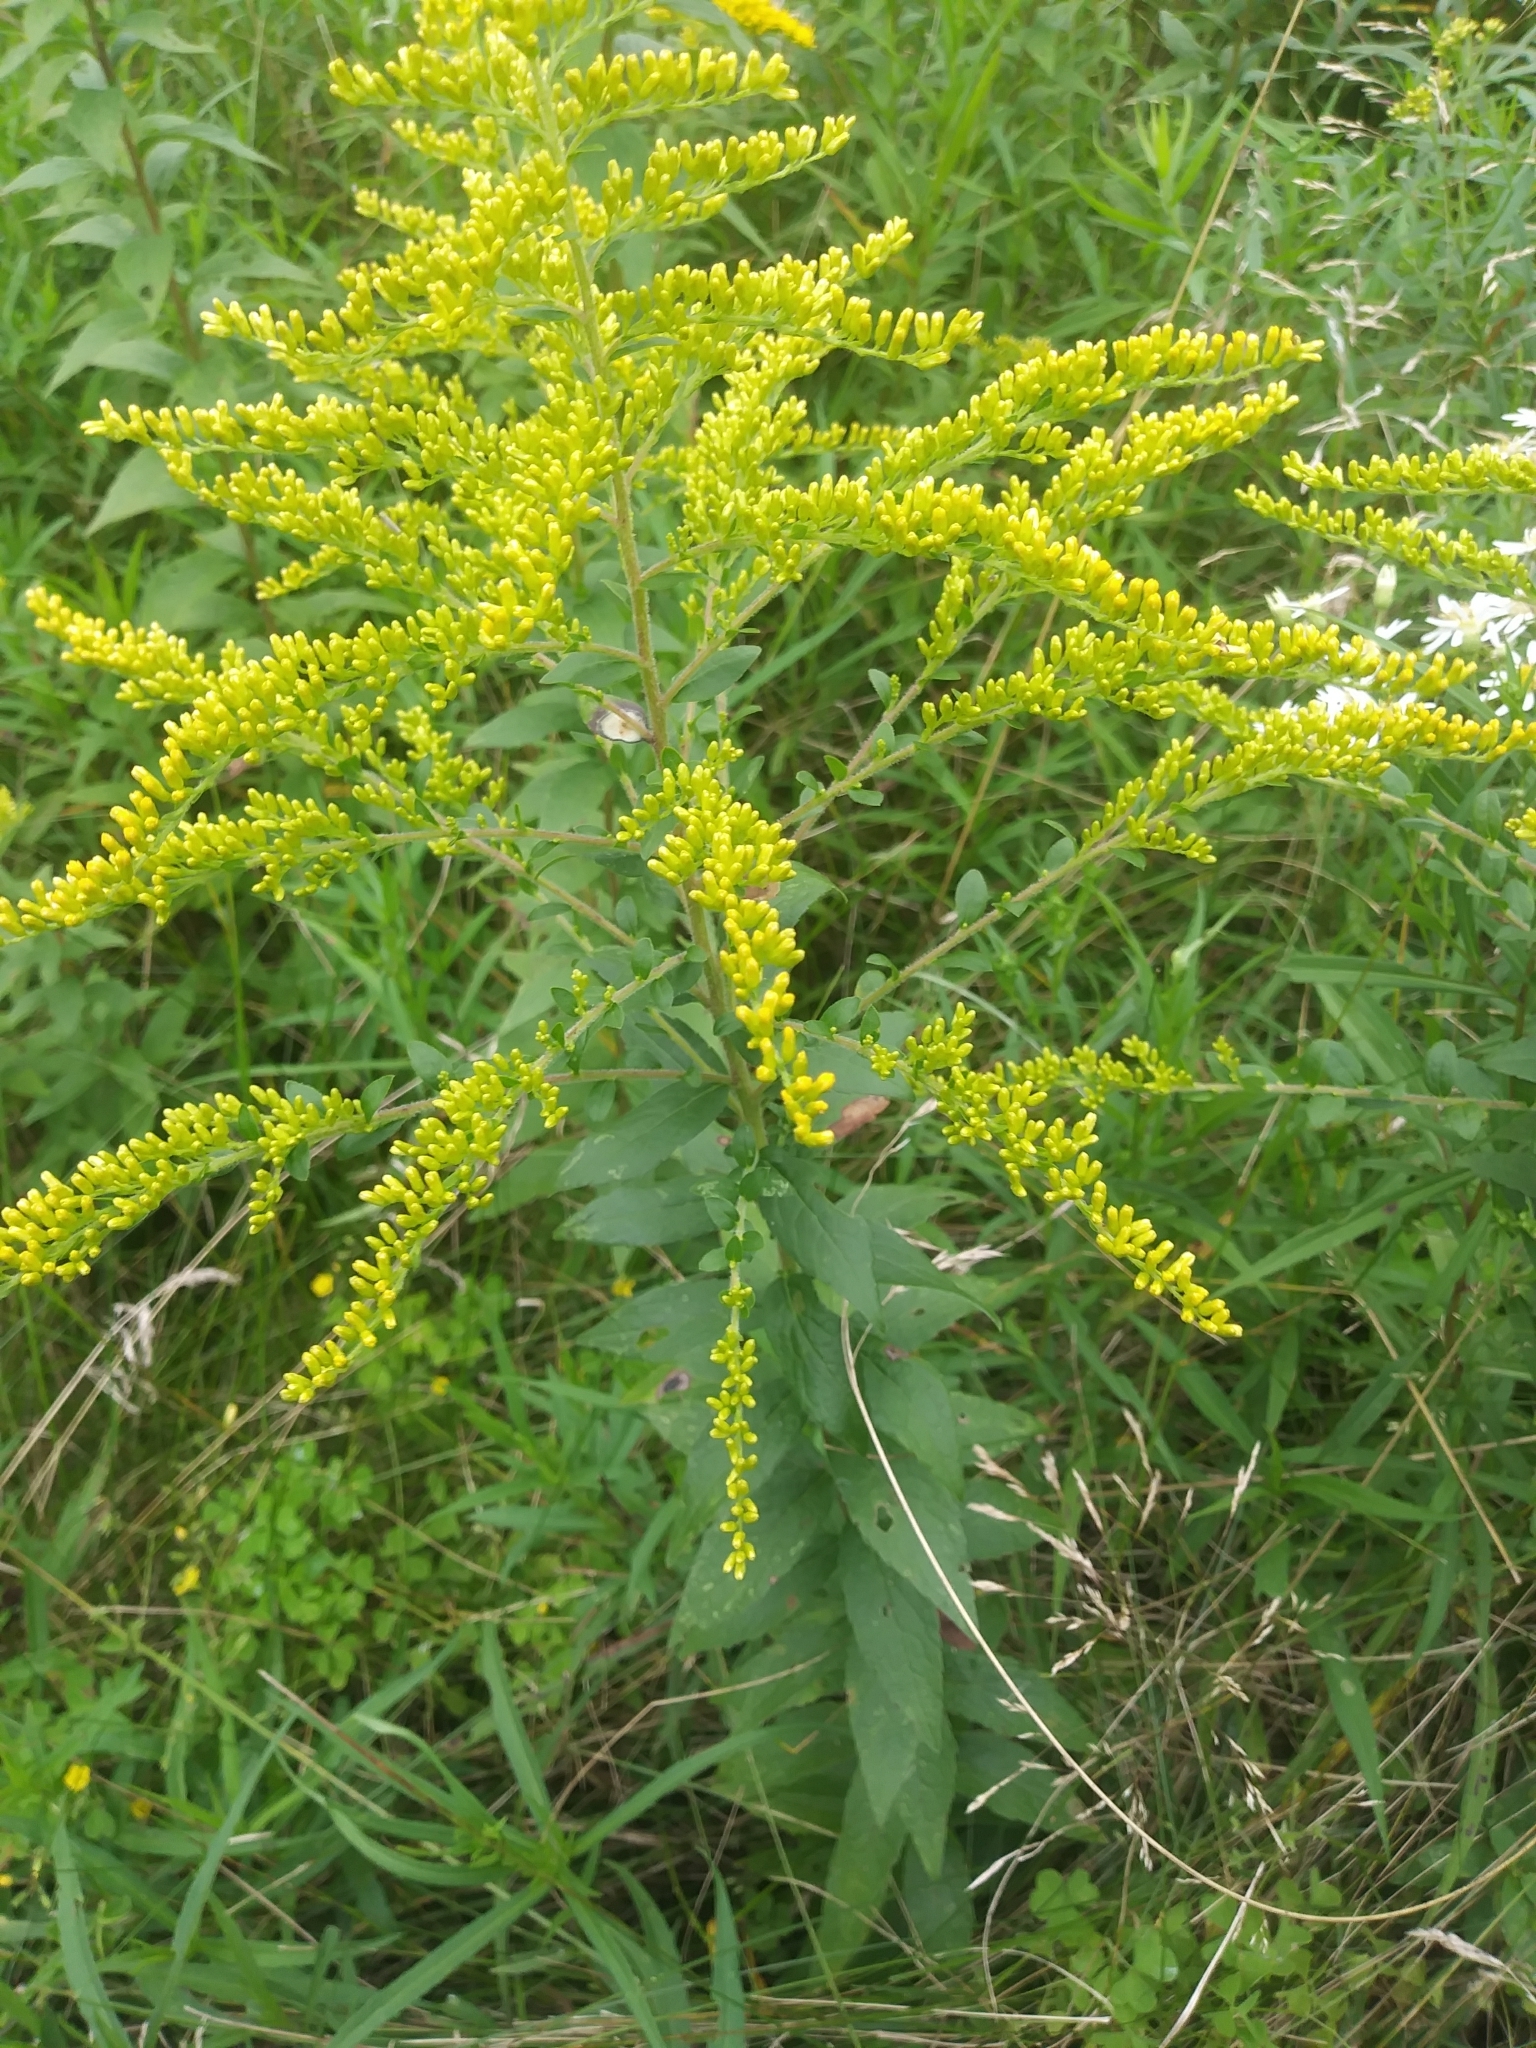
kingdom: Plantae
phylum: Tracheophyta
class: Magnoliopsida
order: Asterales
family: Asteraceae
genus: Solidago
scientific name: Solidago rugosa
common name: Rough-stemmed goldenrod
